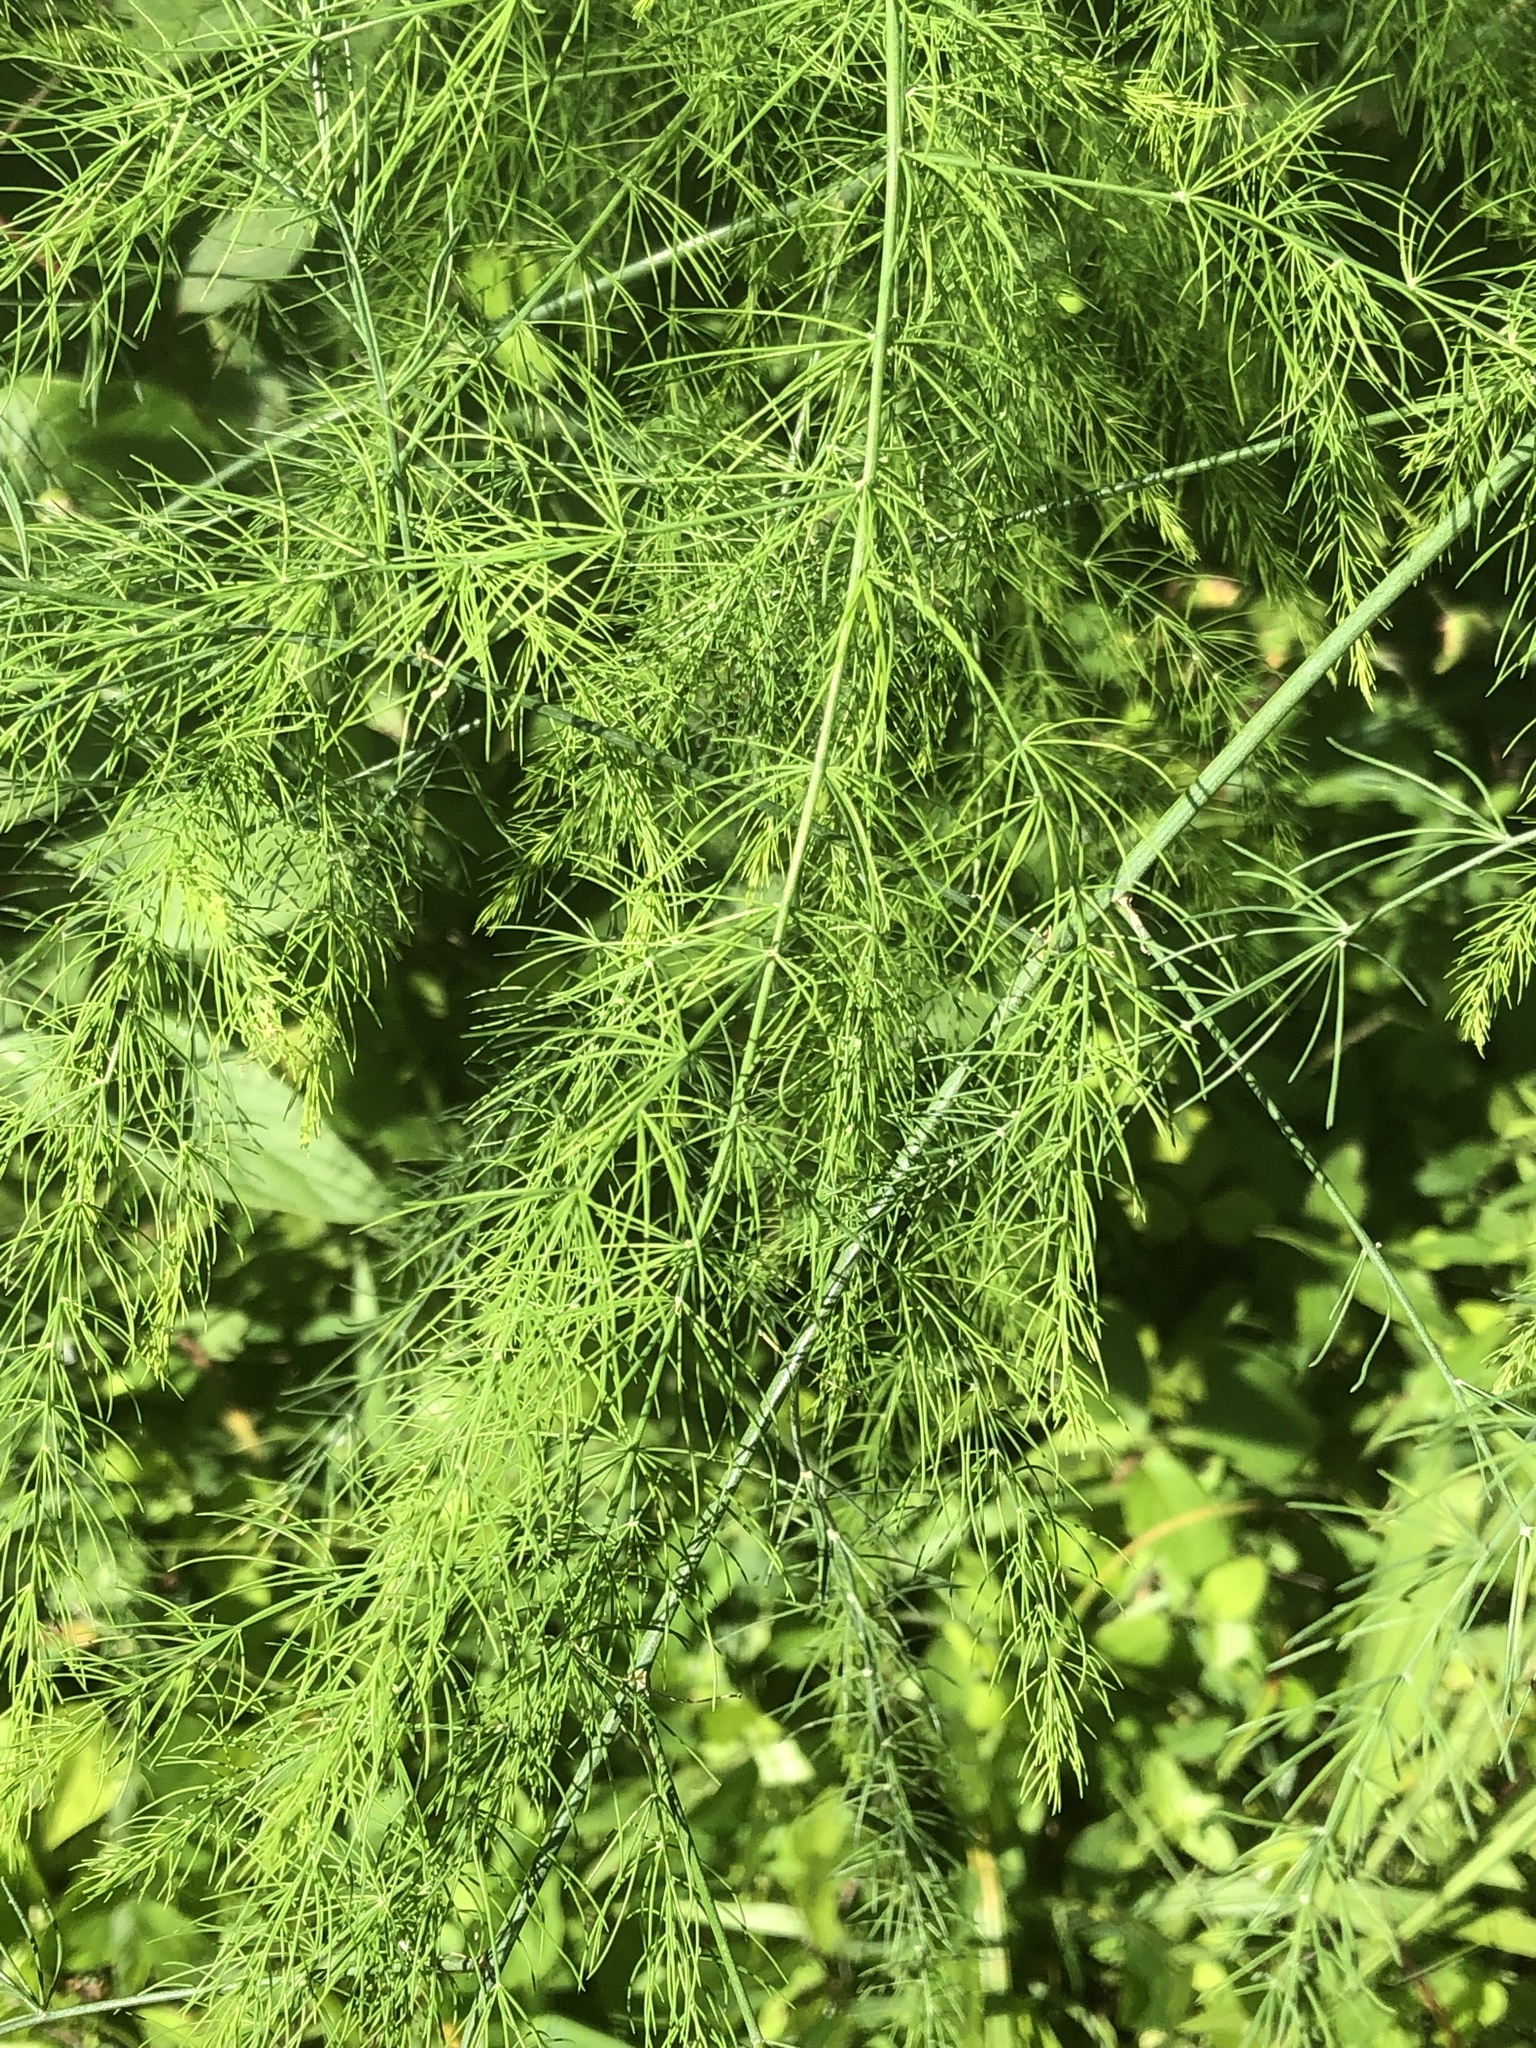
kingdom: Plantae
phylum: Tracheophyta
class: Liliopsida
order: Asparagales
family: Asparagaceae
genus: Asparagus
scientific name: Asparagus officinalis
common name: Garden asparagus
